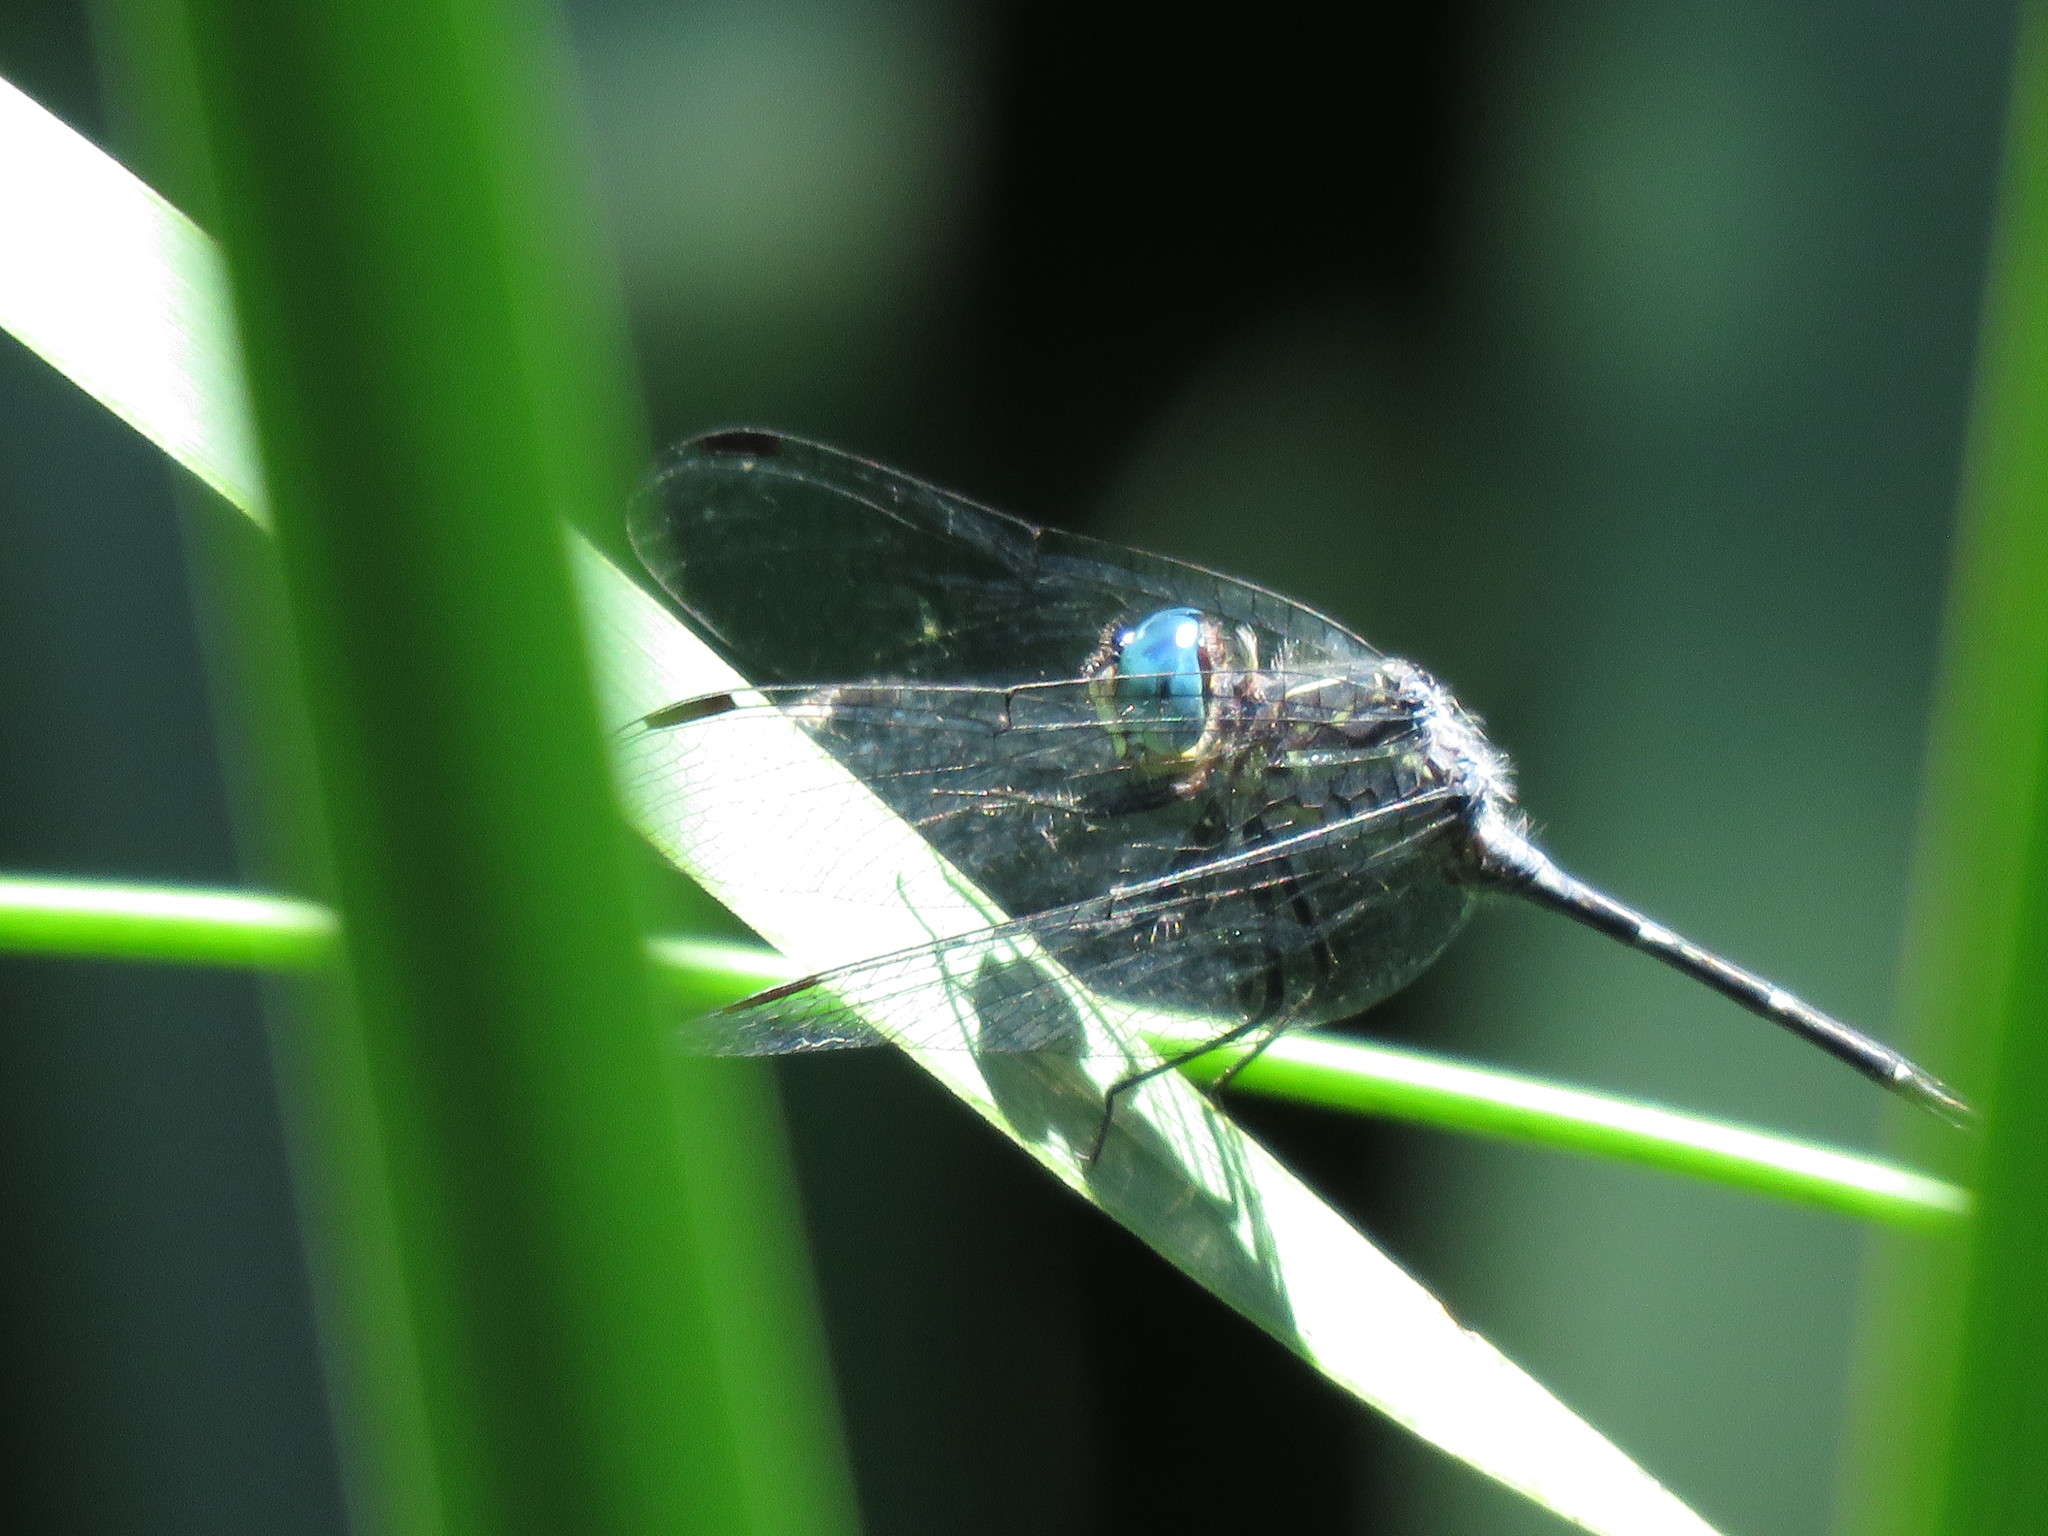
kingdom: Animalia
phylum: Arthropoda
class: Insecta
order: Odonata
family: Libellulidae
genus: Micrathyria
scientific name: Micrathyria hypodidyma
